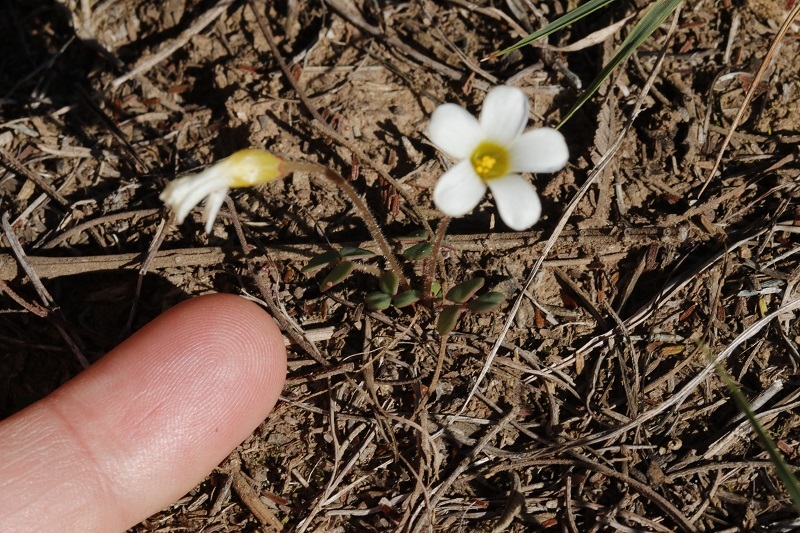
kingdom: Plantae
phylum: Tracheophyta
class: Magnoliopsida
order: Oxalidales
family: Oxalidaceae
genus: Oxalis
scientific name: Oxalis punctata
